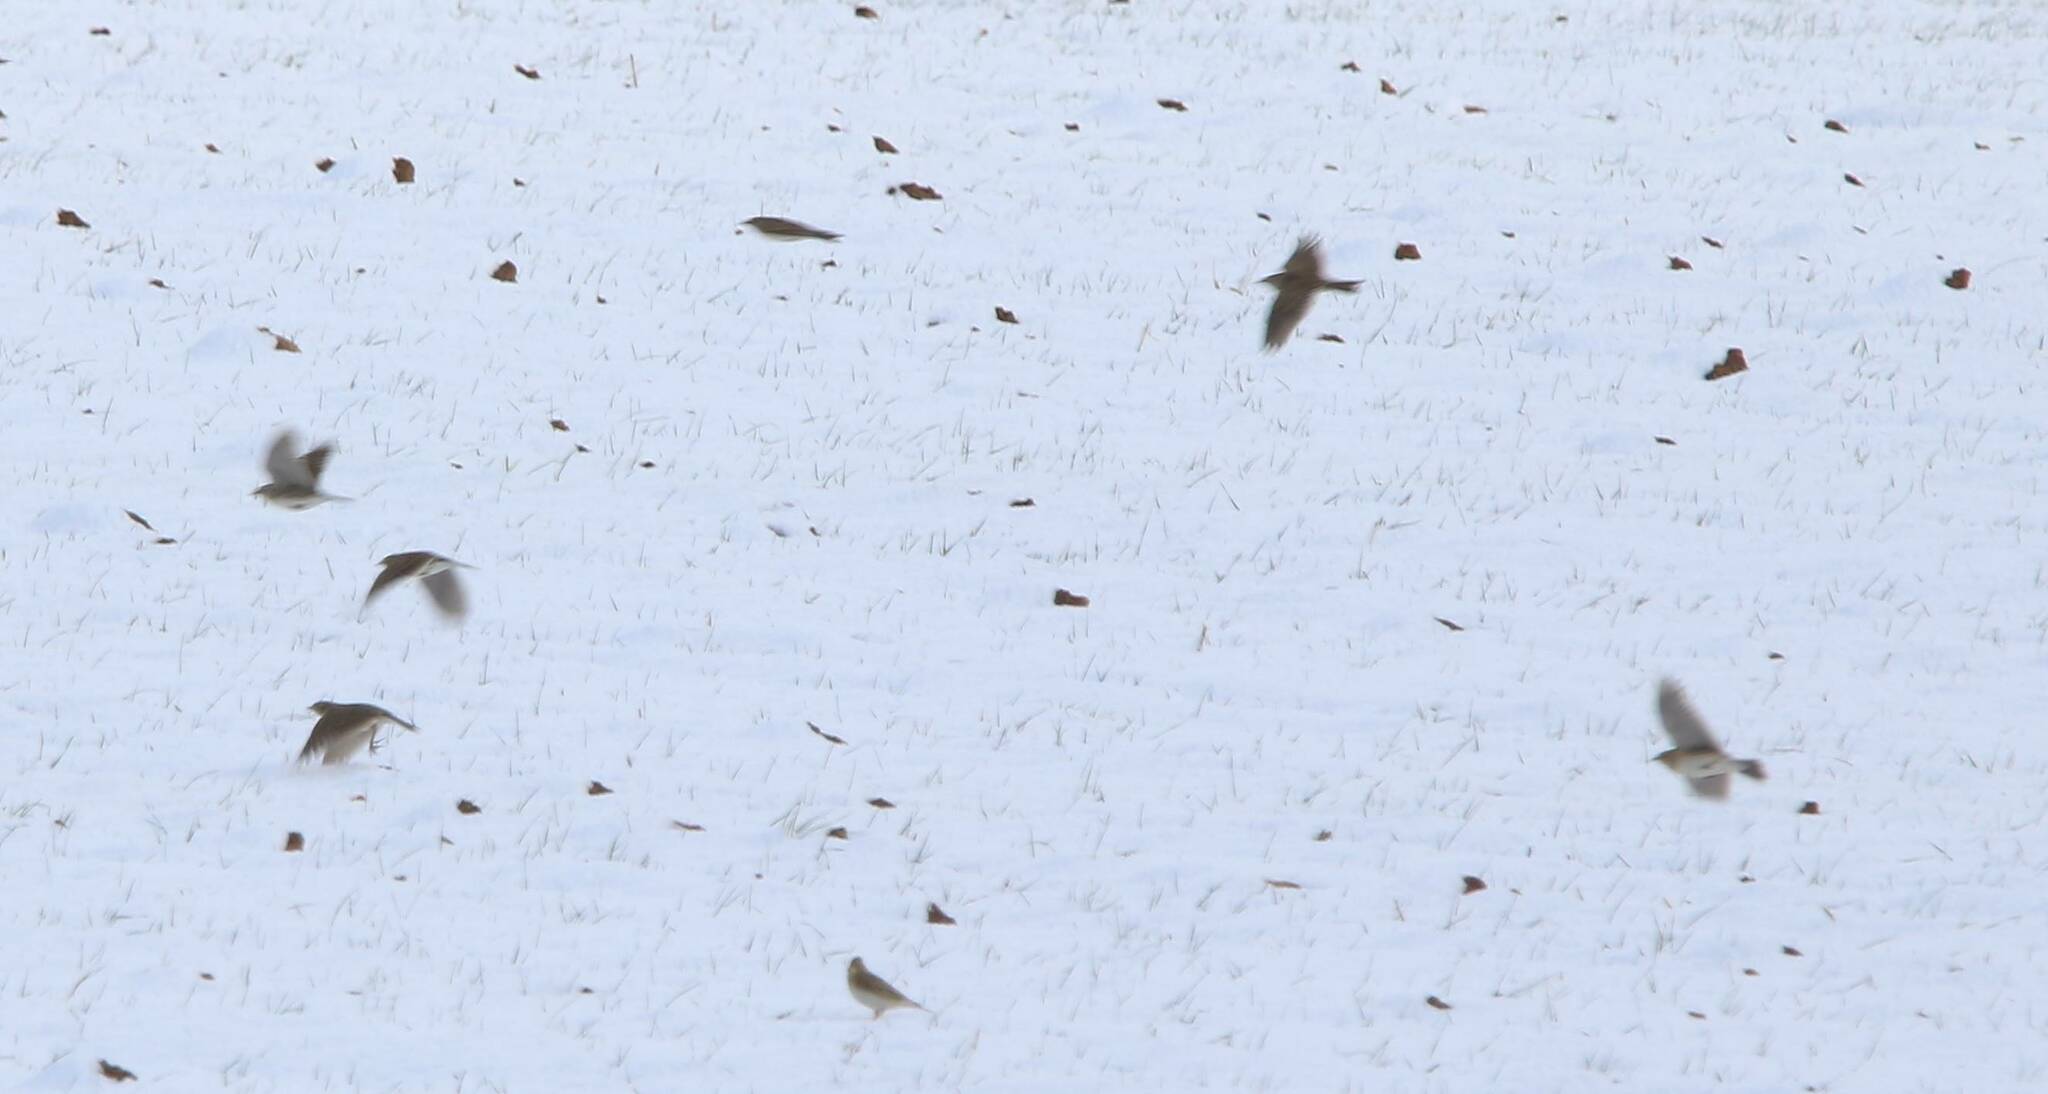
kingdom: Animalia
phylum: Chordata
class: Aves
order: Passeriformes
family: Alaudidae
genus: Alauda
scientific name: Alauda arvensis
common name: Eurasian skylark
